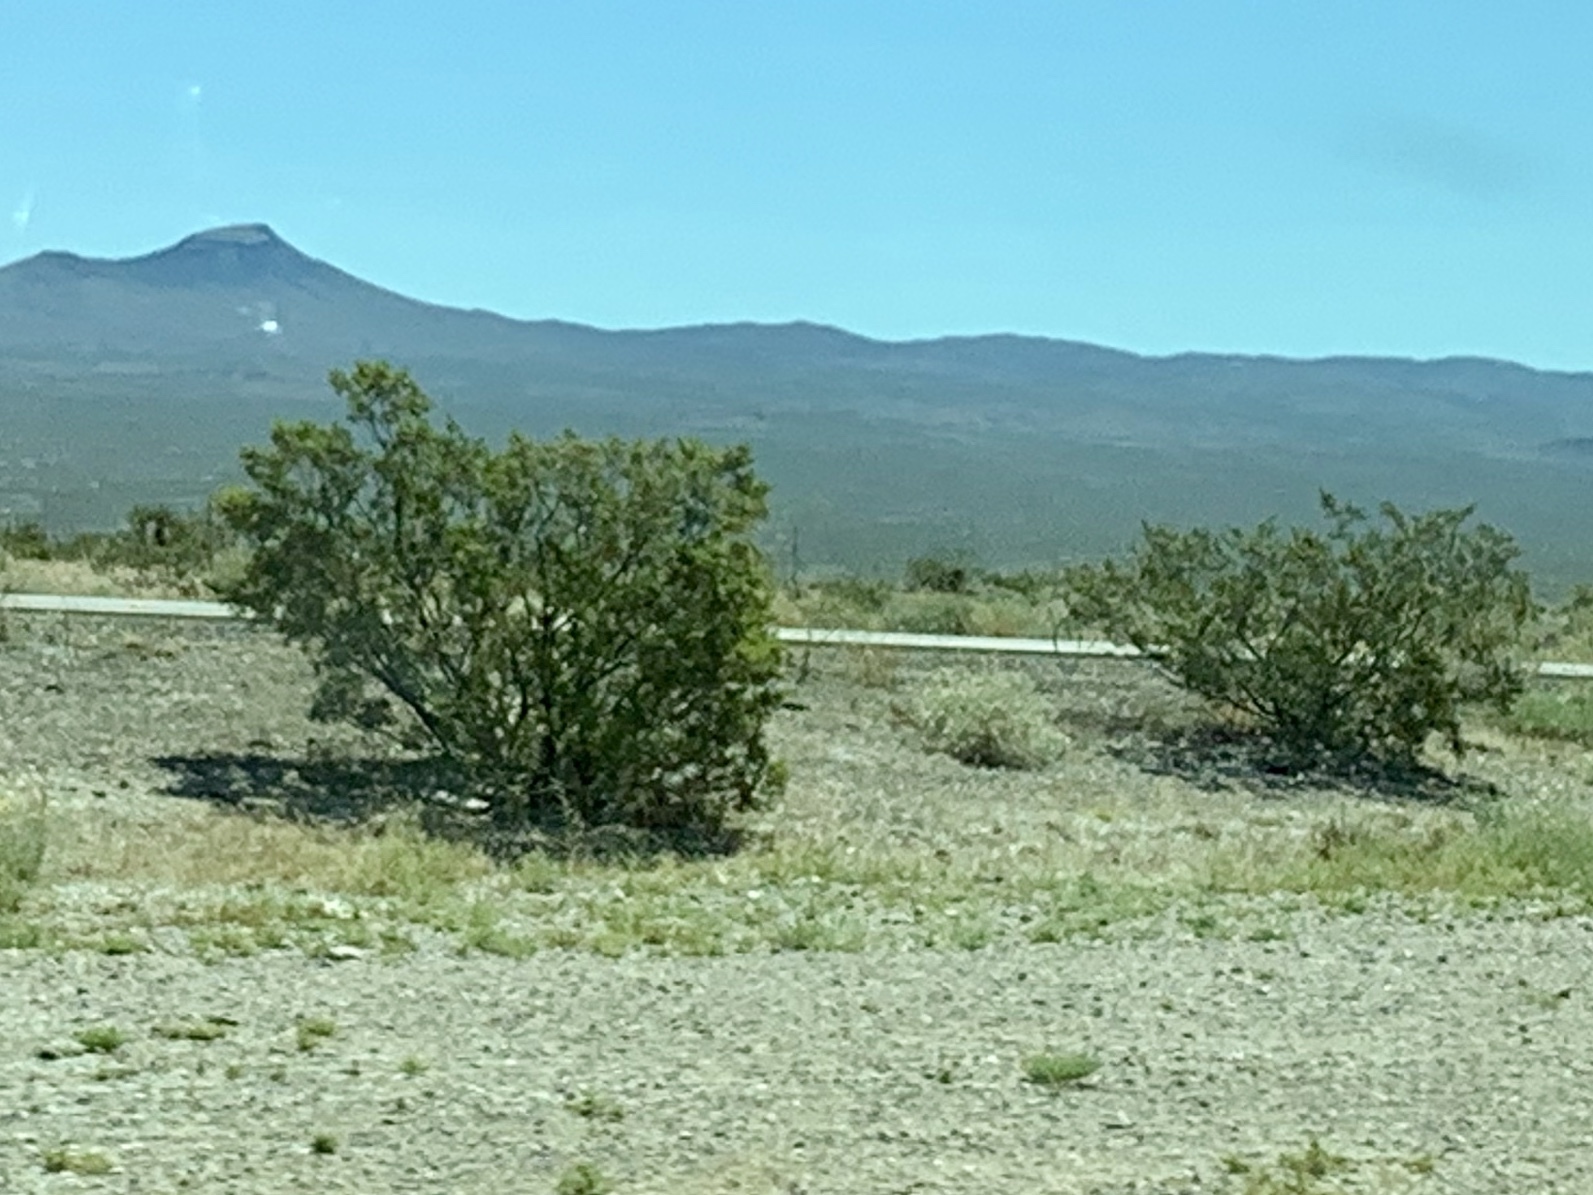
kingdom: Plantae
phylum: Tracheophyta
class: Magnoliopsida
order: Zygophyllales
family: Zygophyllaceae
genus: Larrea
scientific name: Larrea tridentata
